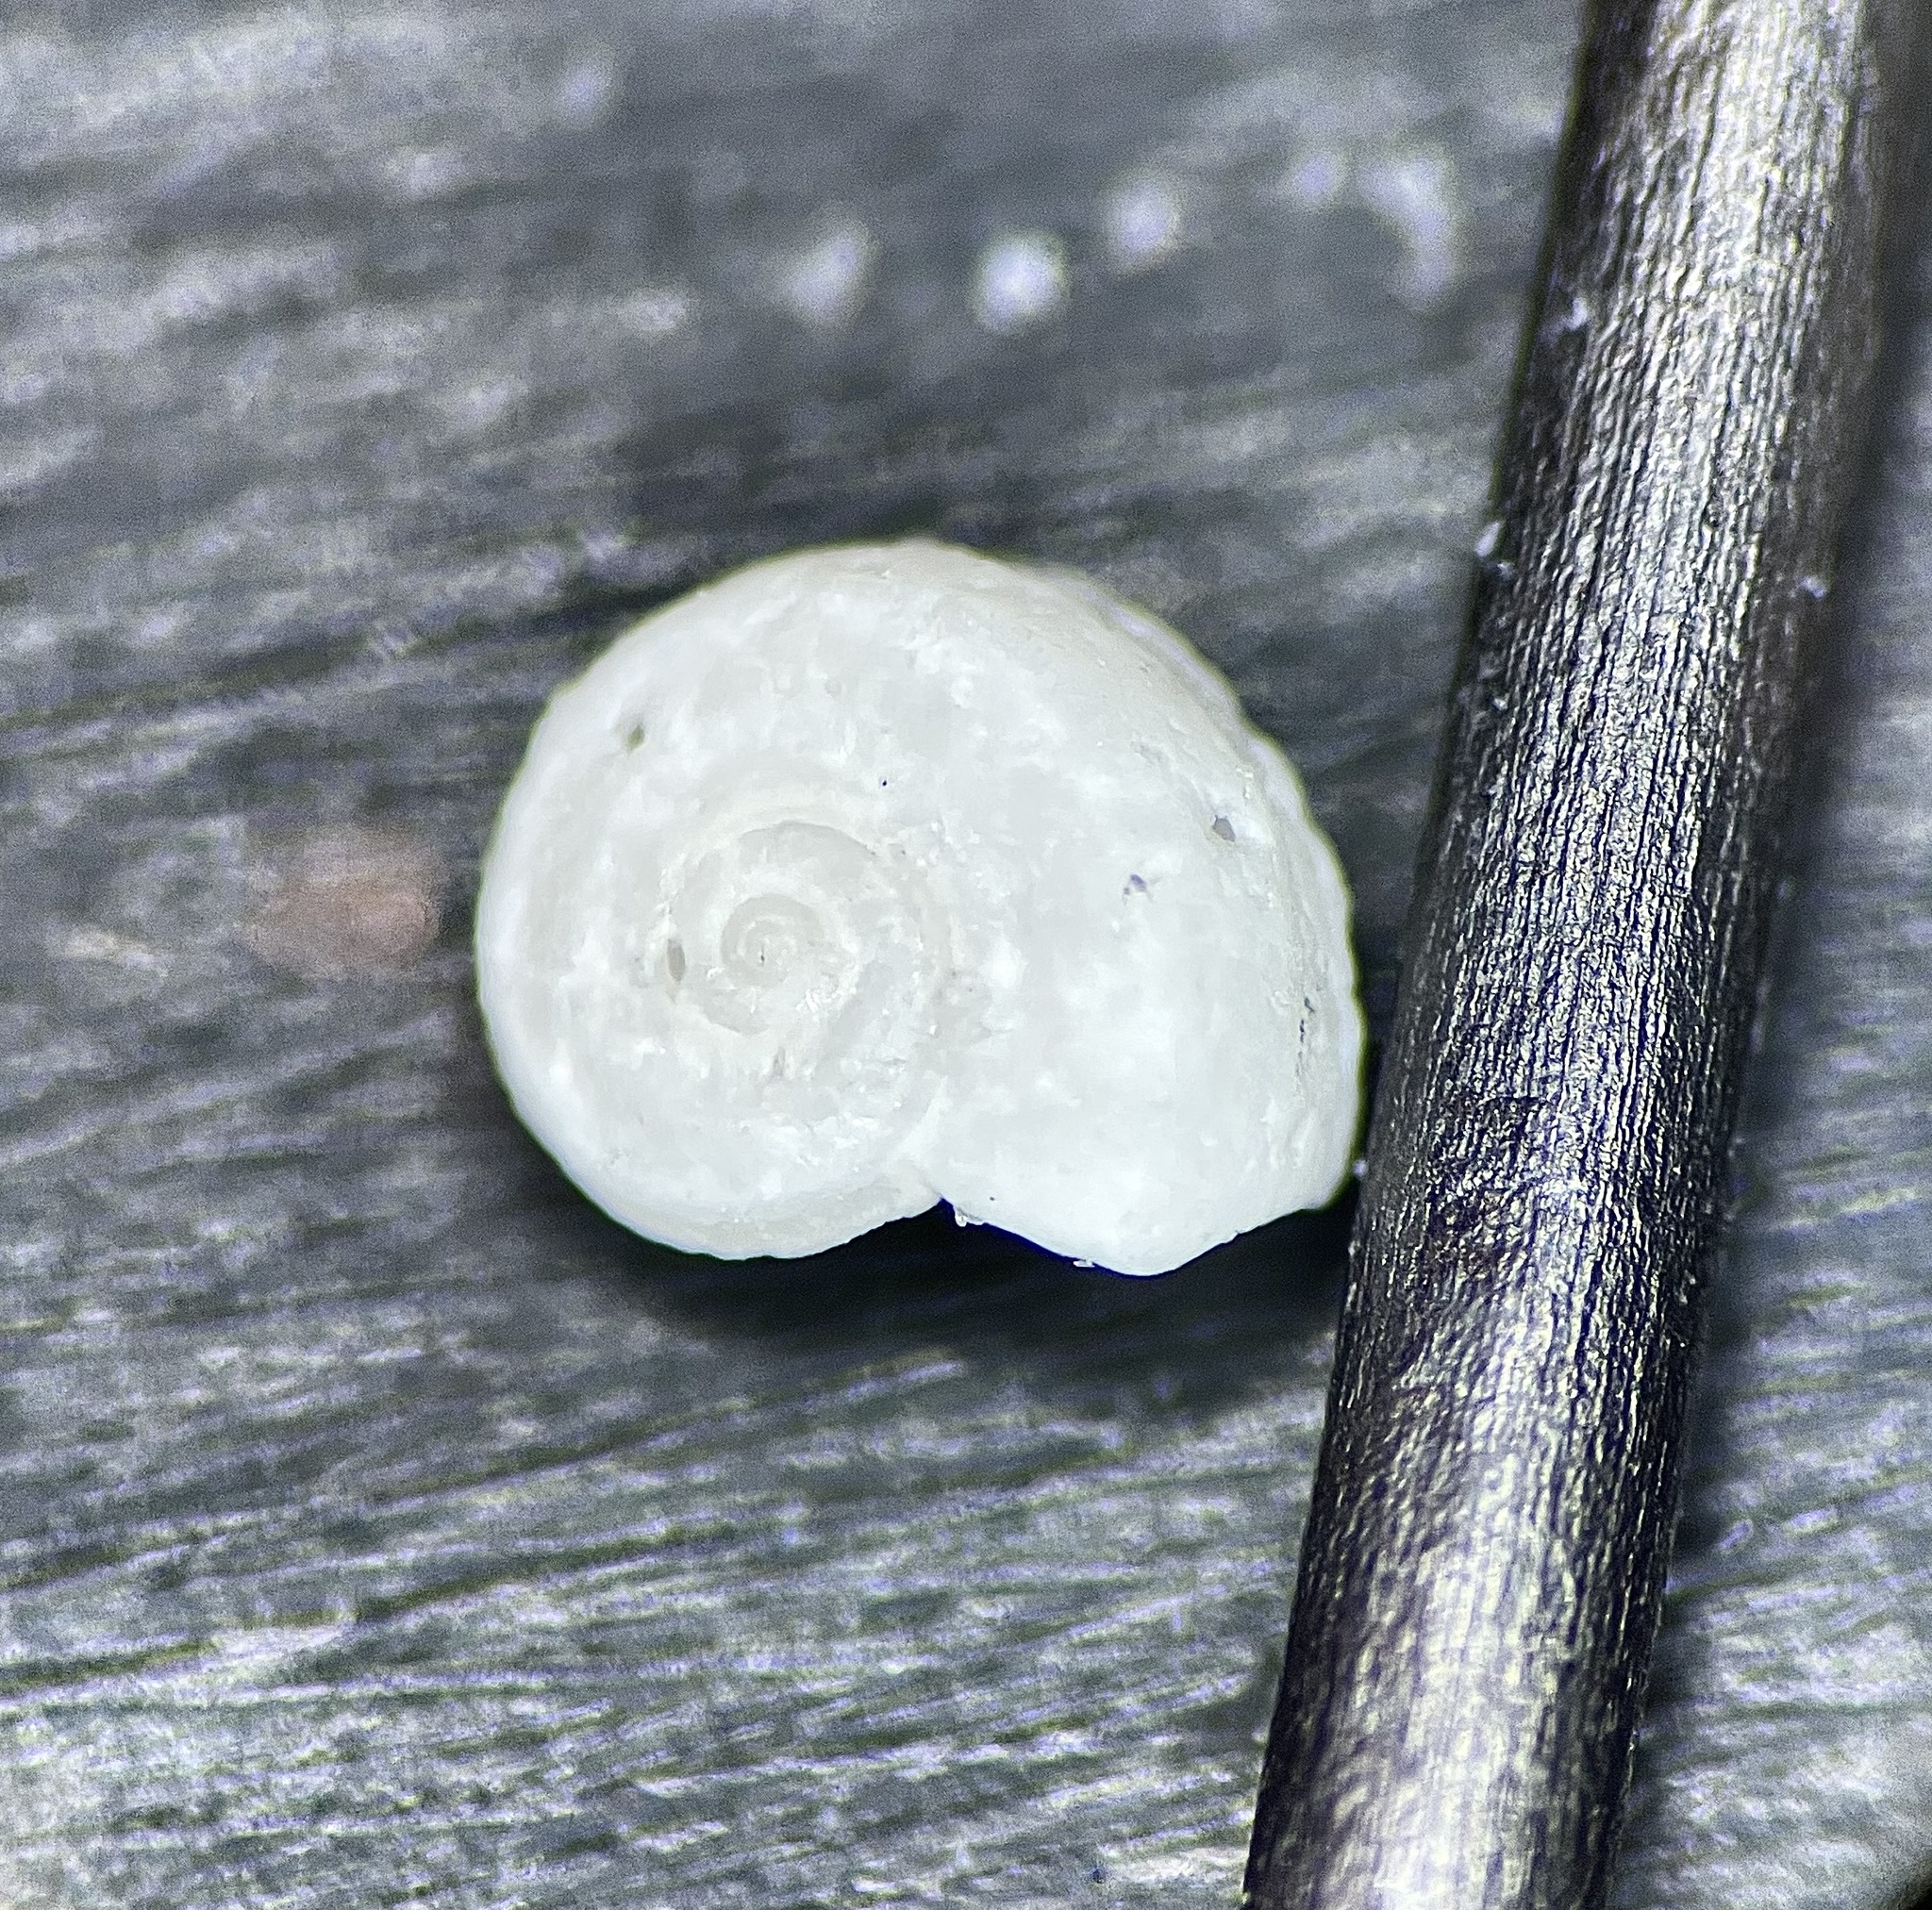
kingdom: Animalia
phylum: Mollusca
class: Gastropoda
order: Littorinimorpha
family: Tornidae
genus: Cyclostremiscus
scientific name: Cyclostremiscus jeannae
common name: Jeanne's vitrinella
